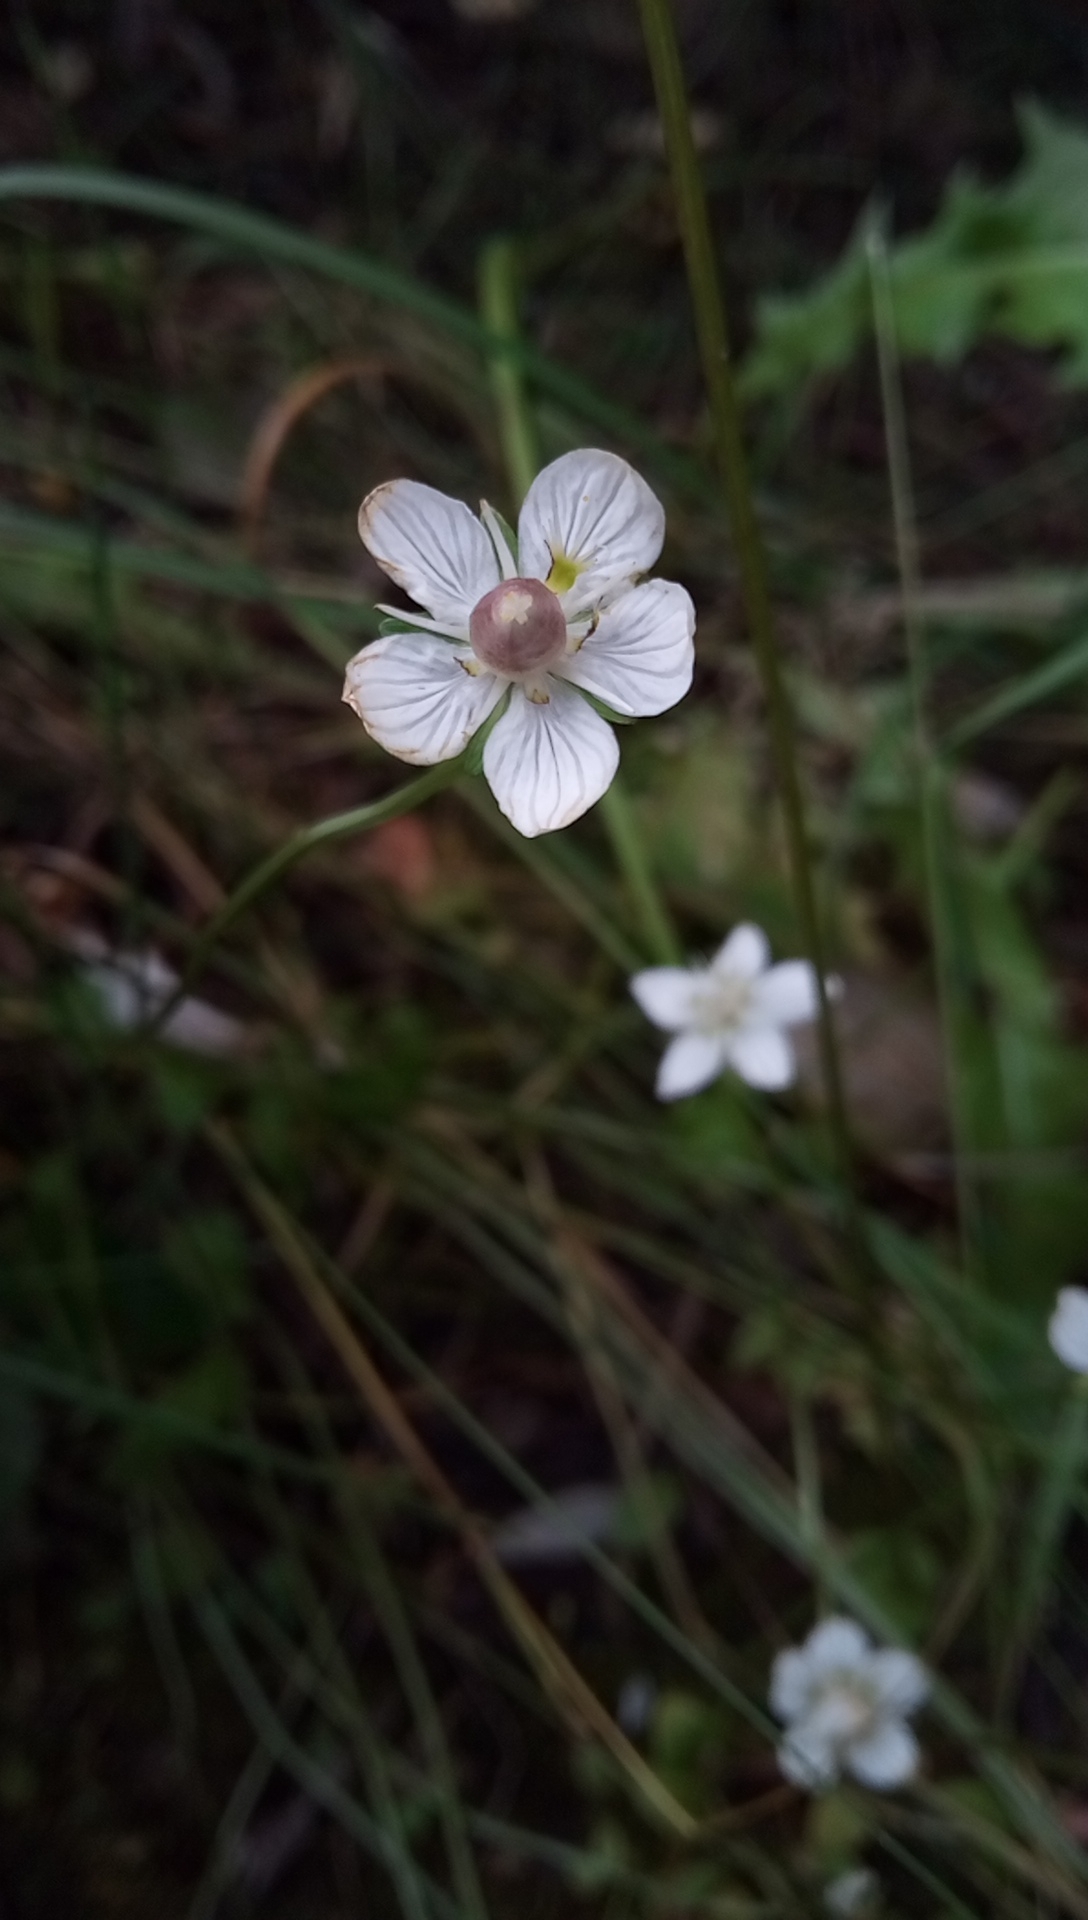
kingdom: Plantae
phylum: Tracheophyta
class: Magnoliopsida
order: Celastrales
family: Parnassiaceae
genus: Parnassia
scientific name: Parnassia palustris
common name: Grass-of-parnassus
